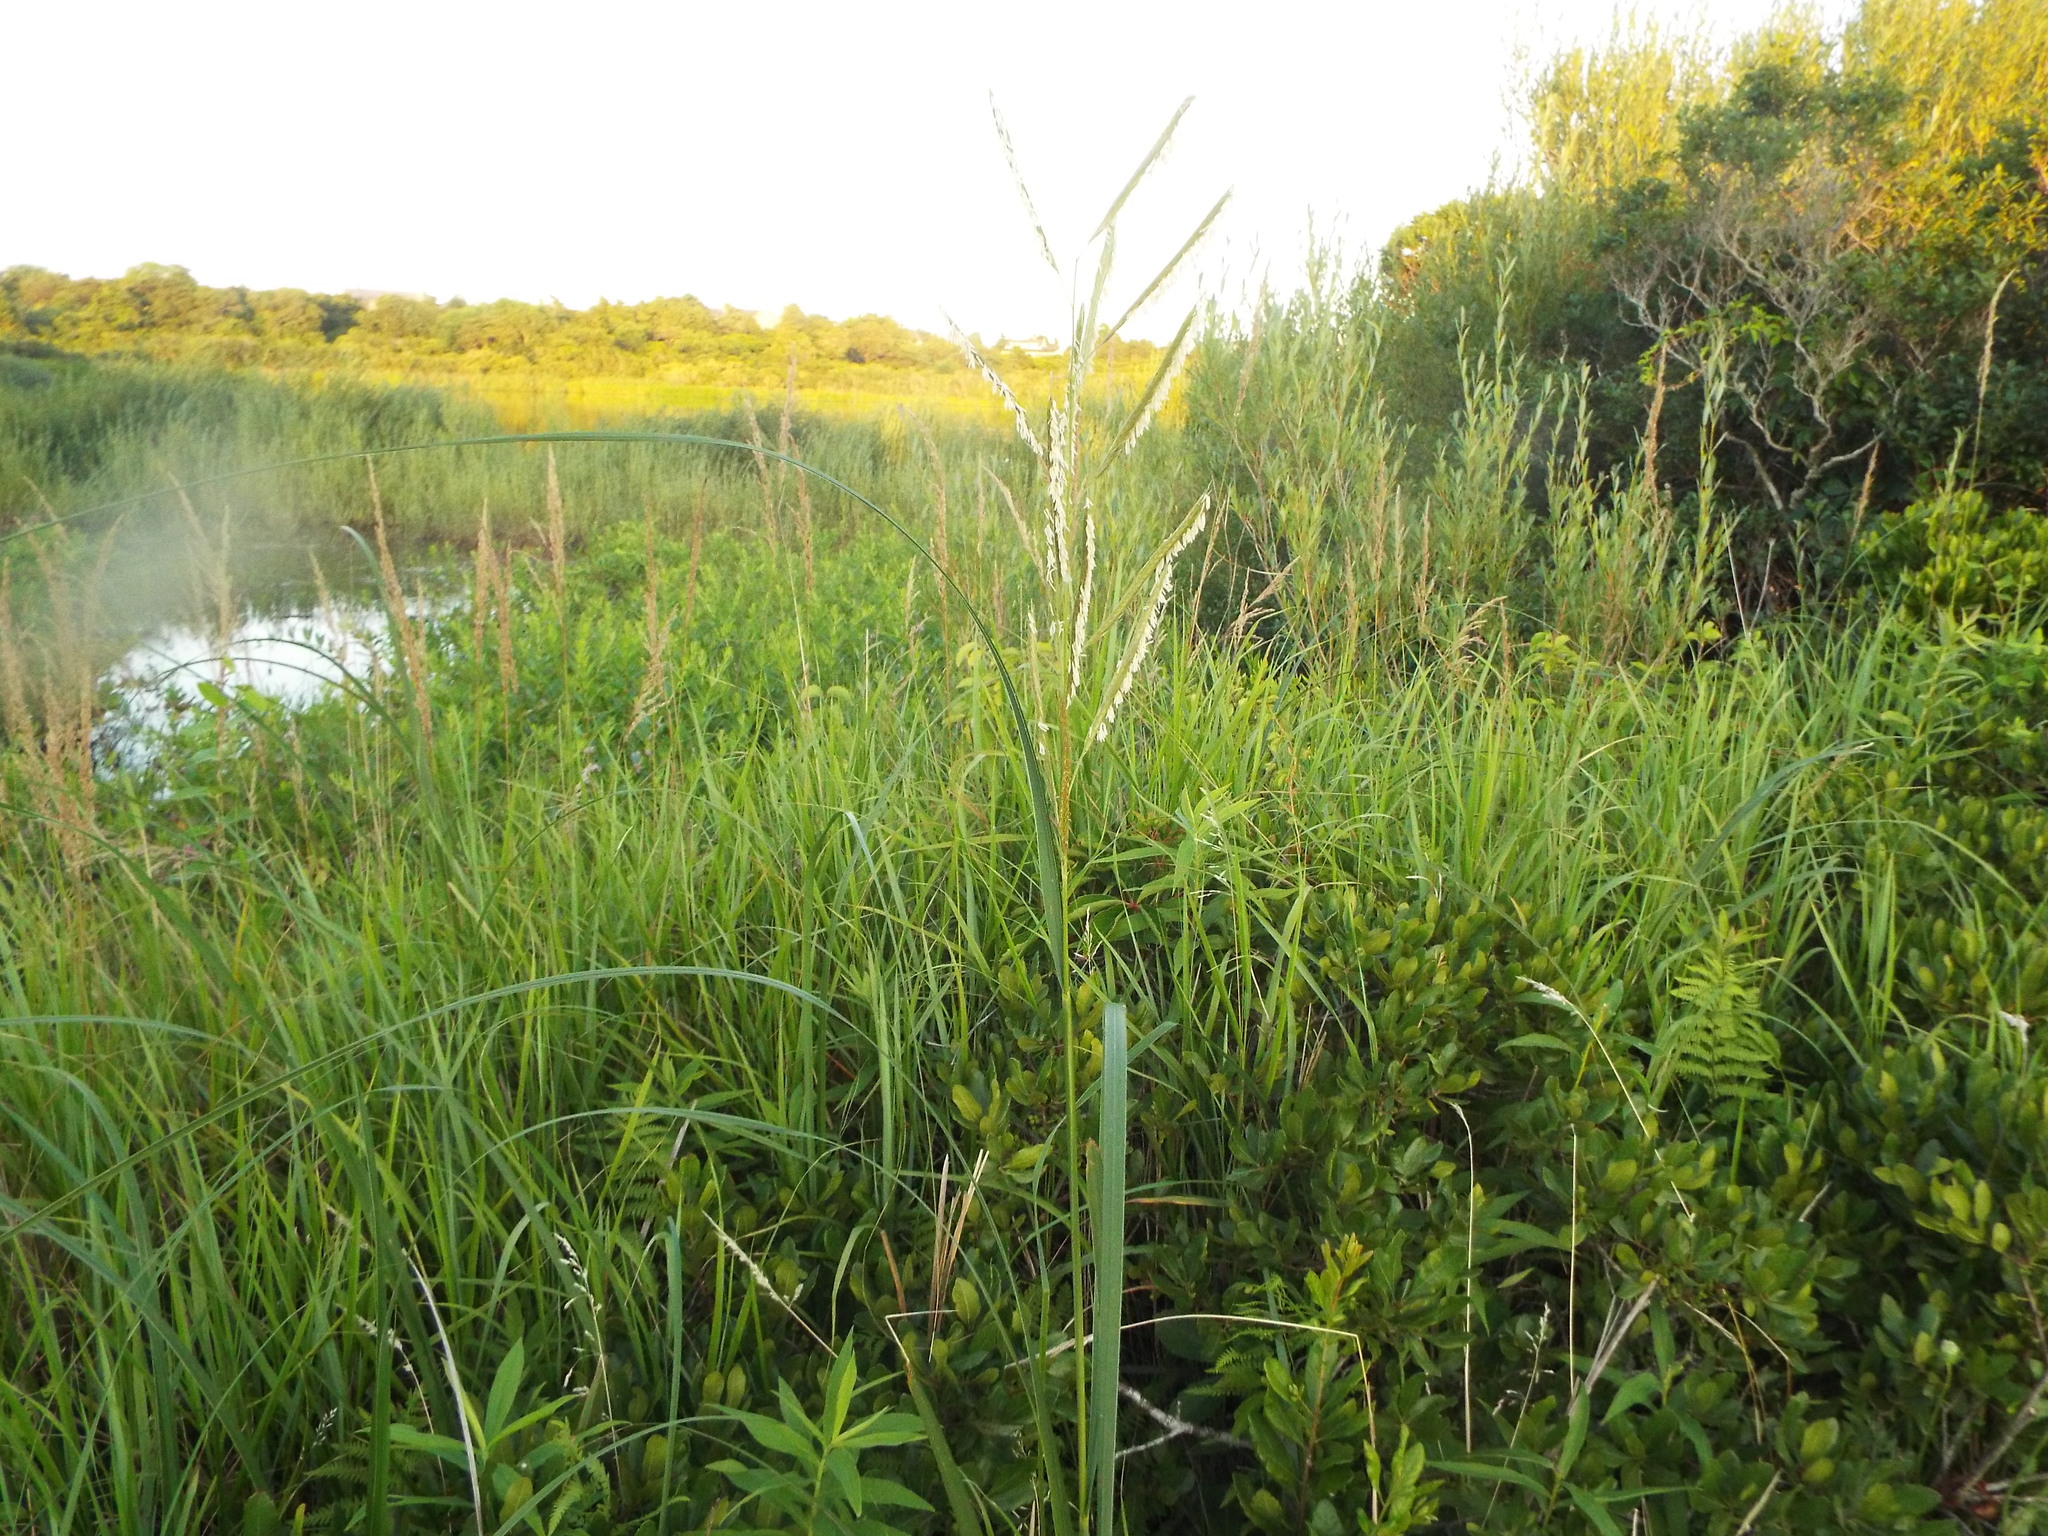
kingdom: Plantae
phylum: Tracheophyta
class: Liliopsida
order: Poales
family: Poaceae
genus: Sporobolus
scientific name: Sporobolus michauxianus
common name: Freshwater cordgrass
